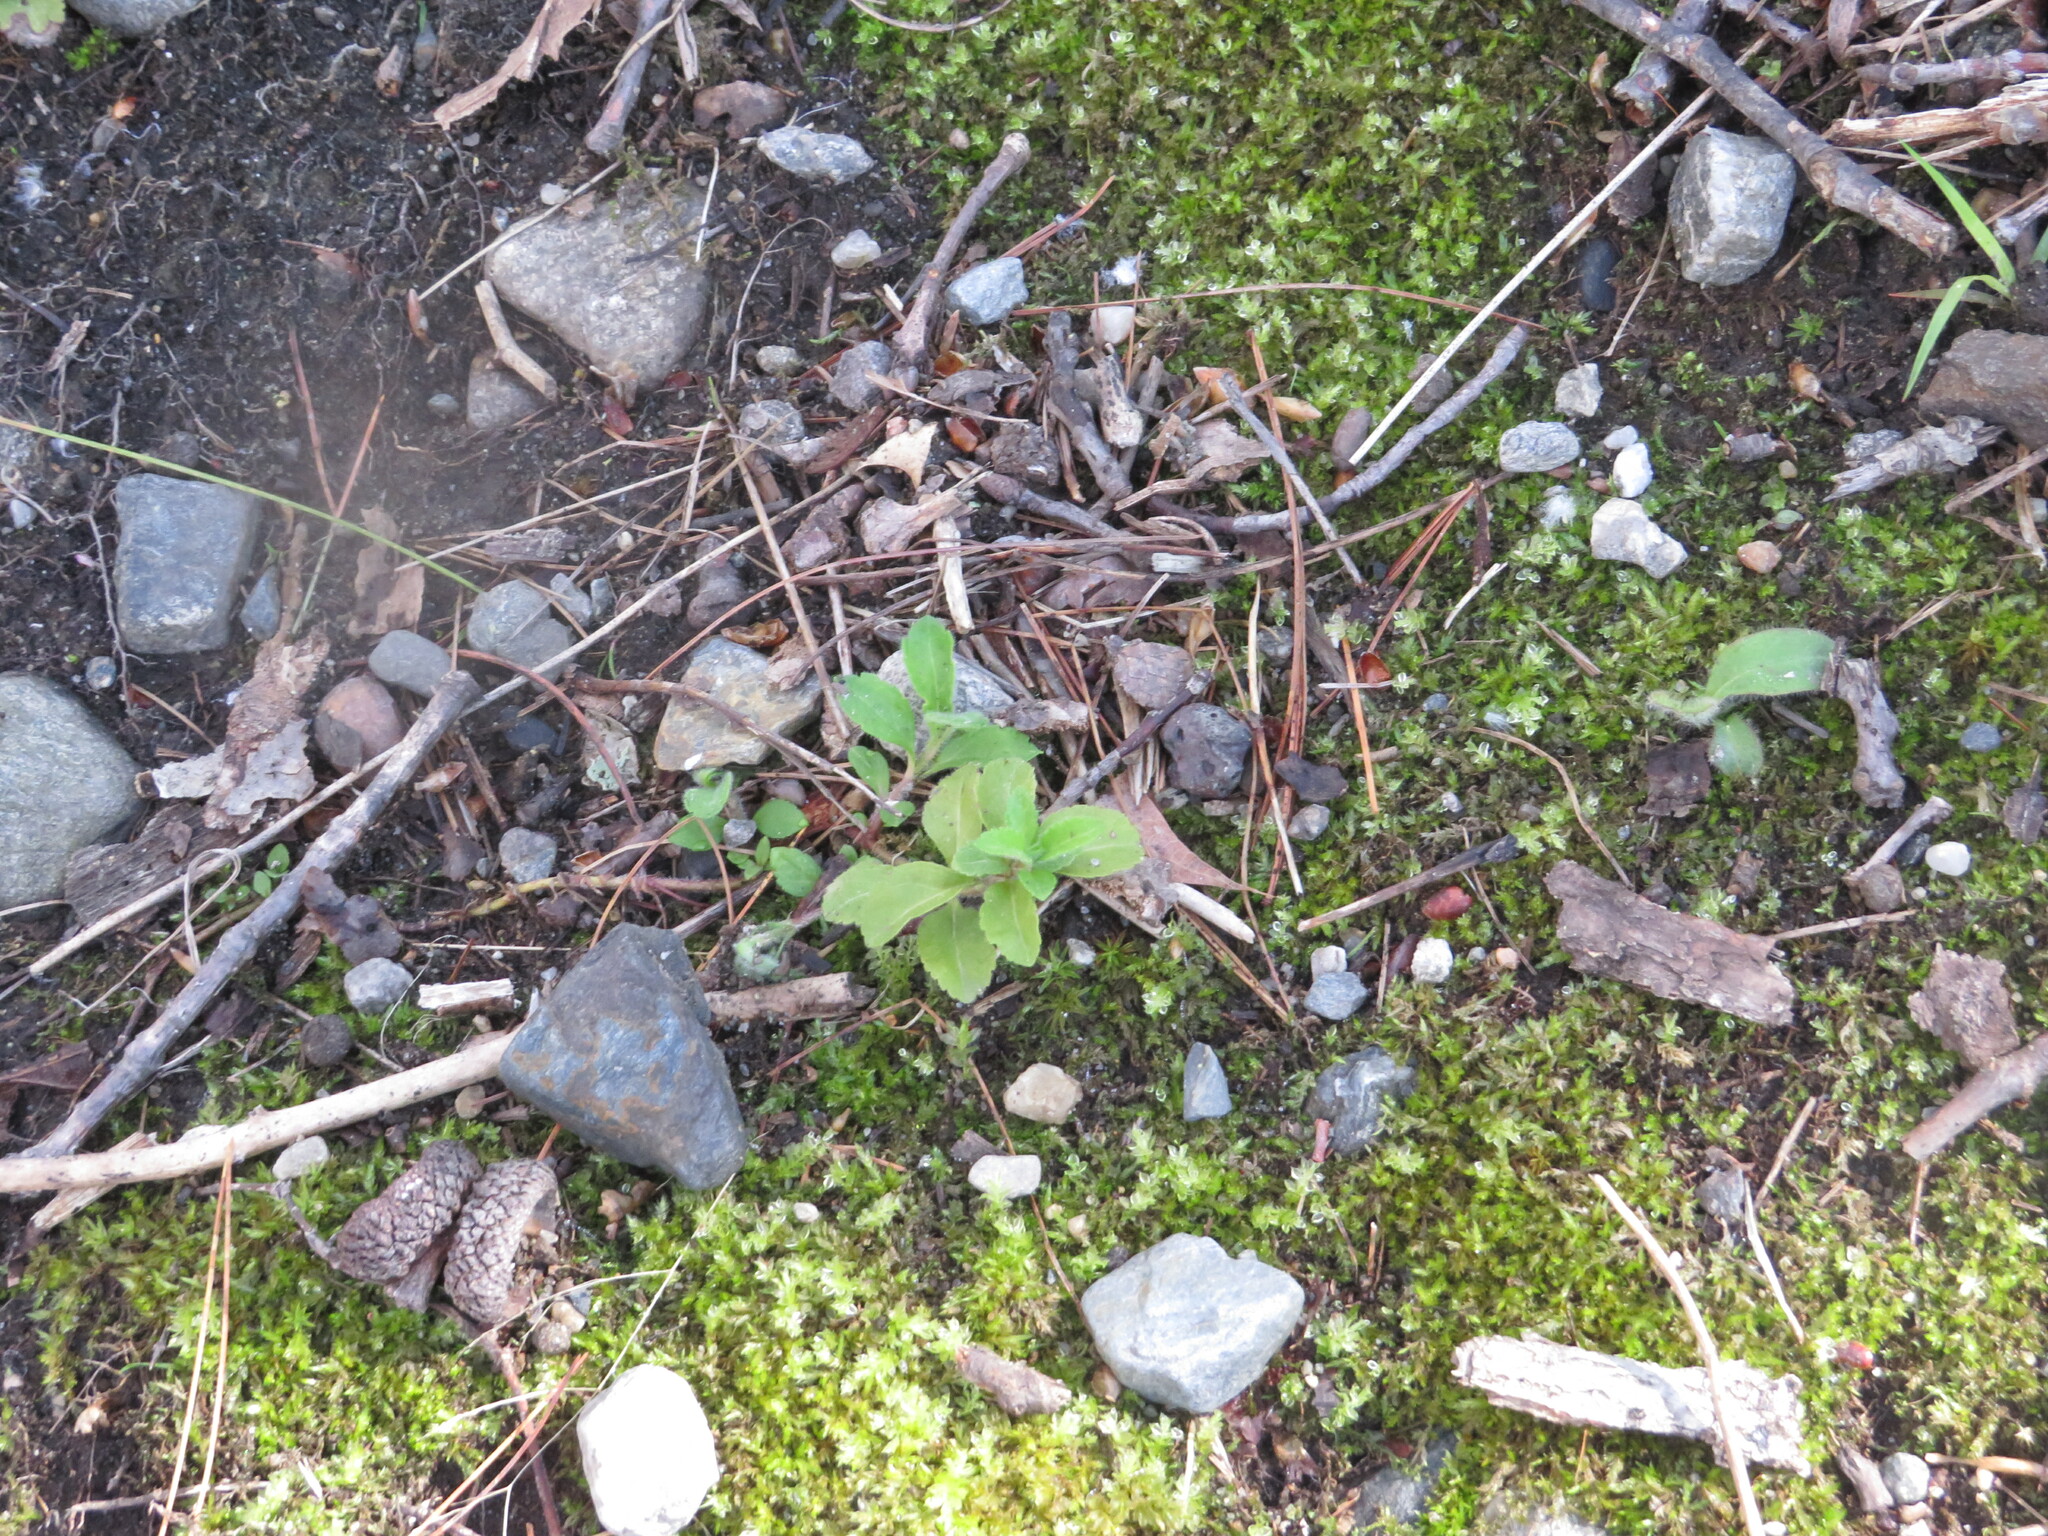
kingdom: Plantae
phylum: Tracheophyta
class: Magnoliopsida
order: Lamiales
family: Plantaginaceae
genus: Veronica
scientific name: Veronica officinalis
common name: Common speedwell
